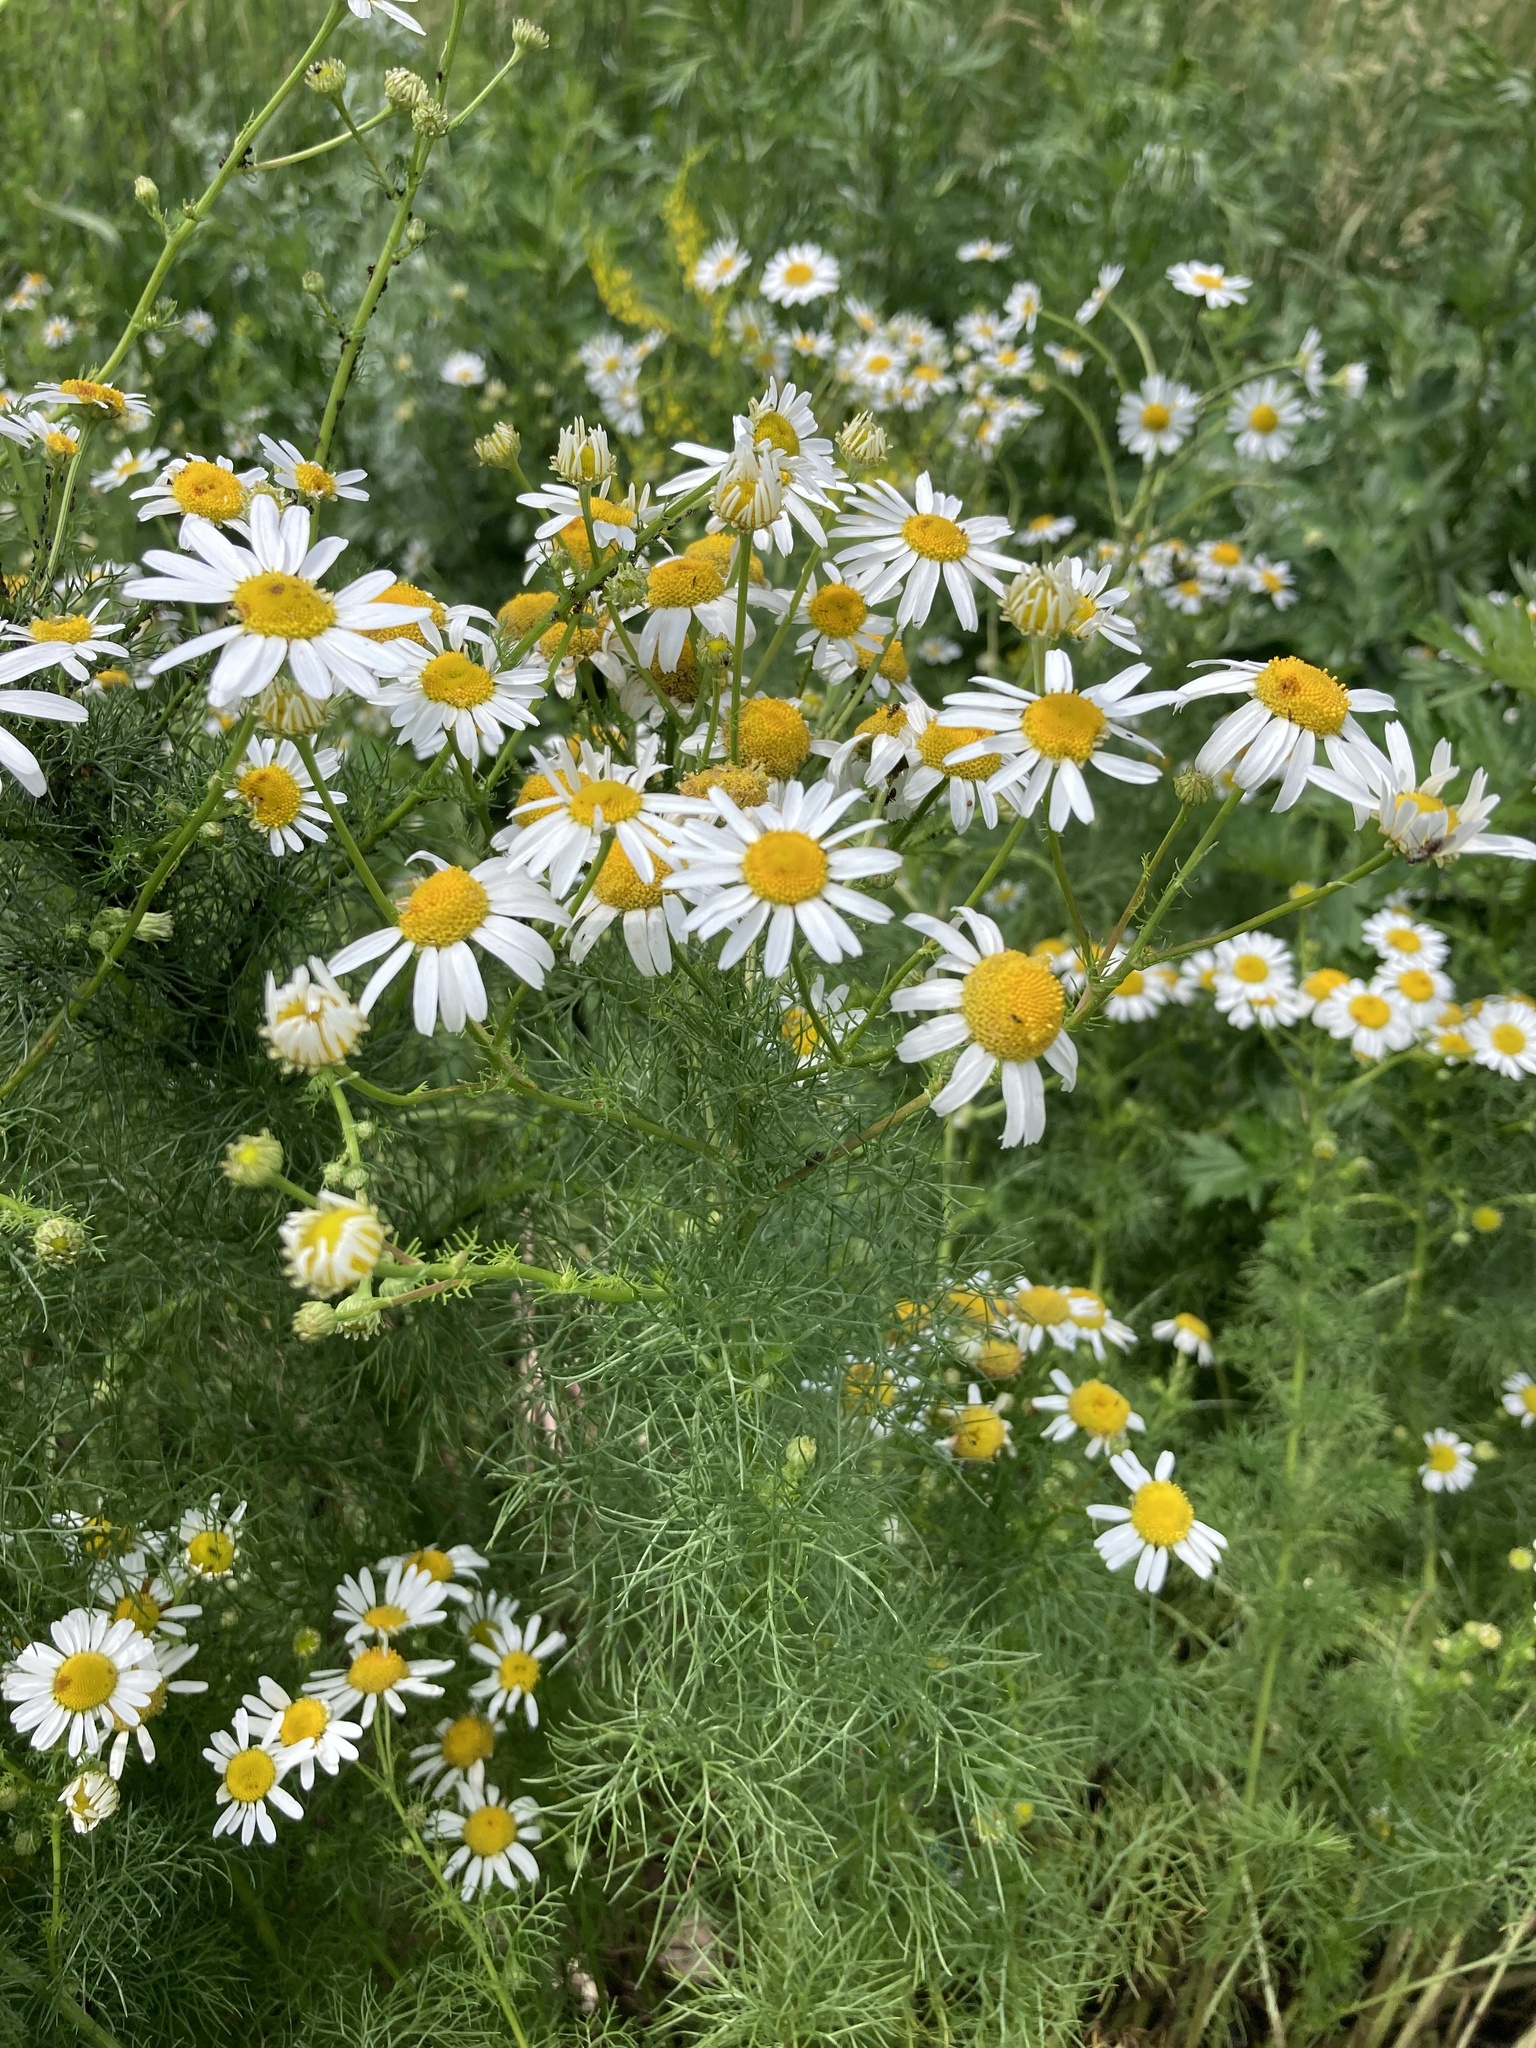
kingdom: Plantae
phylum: Tracheophyta
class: Magnoliopsida
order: Asterales
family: Asteraceae
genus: Tripleurospermum
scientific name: Tripleurospermum inodorum
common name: Scentless mayweed
